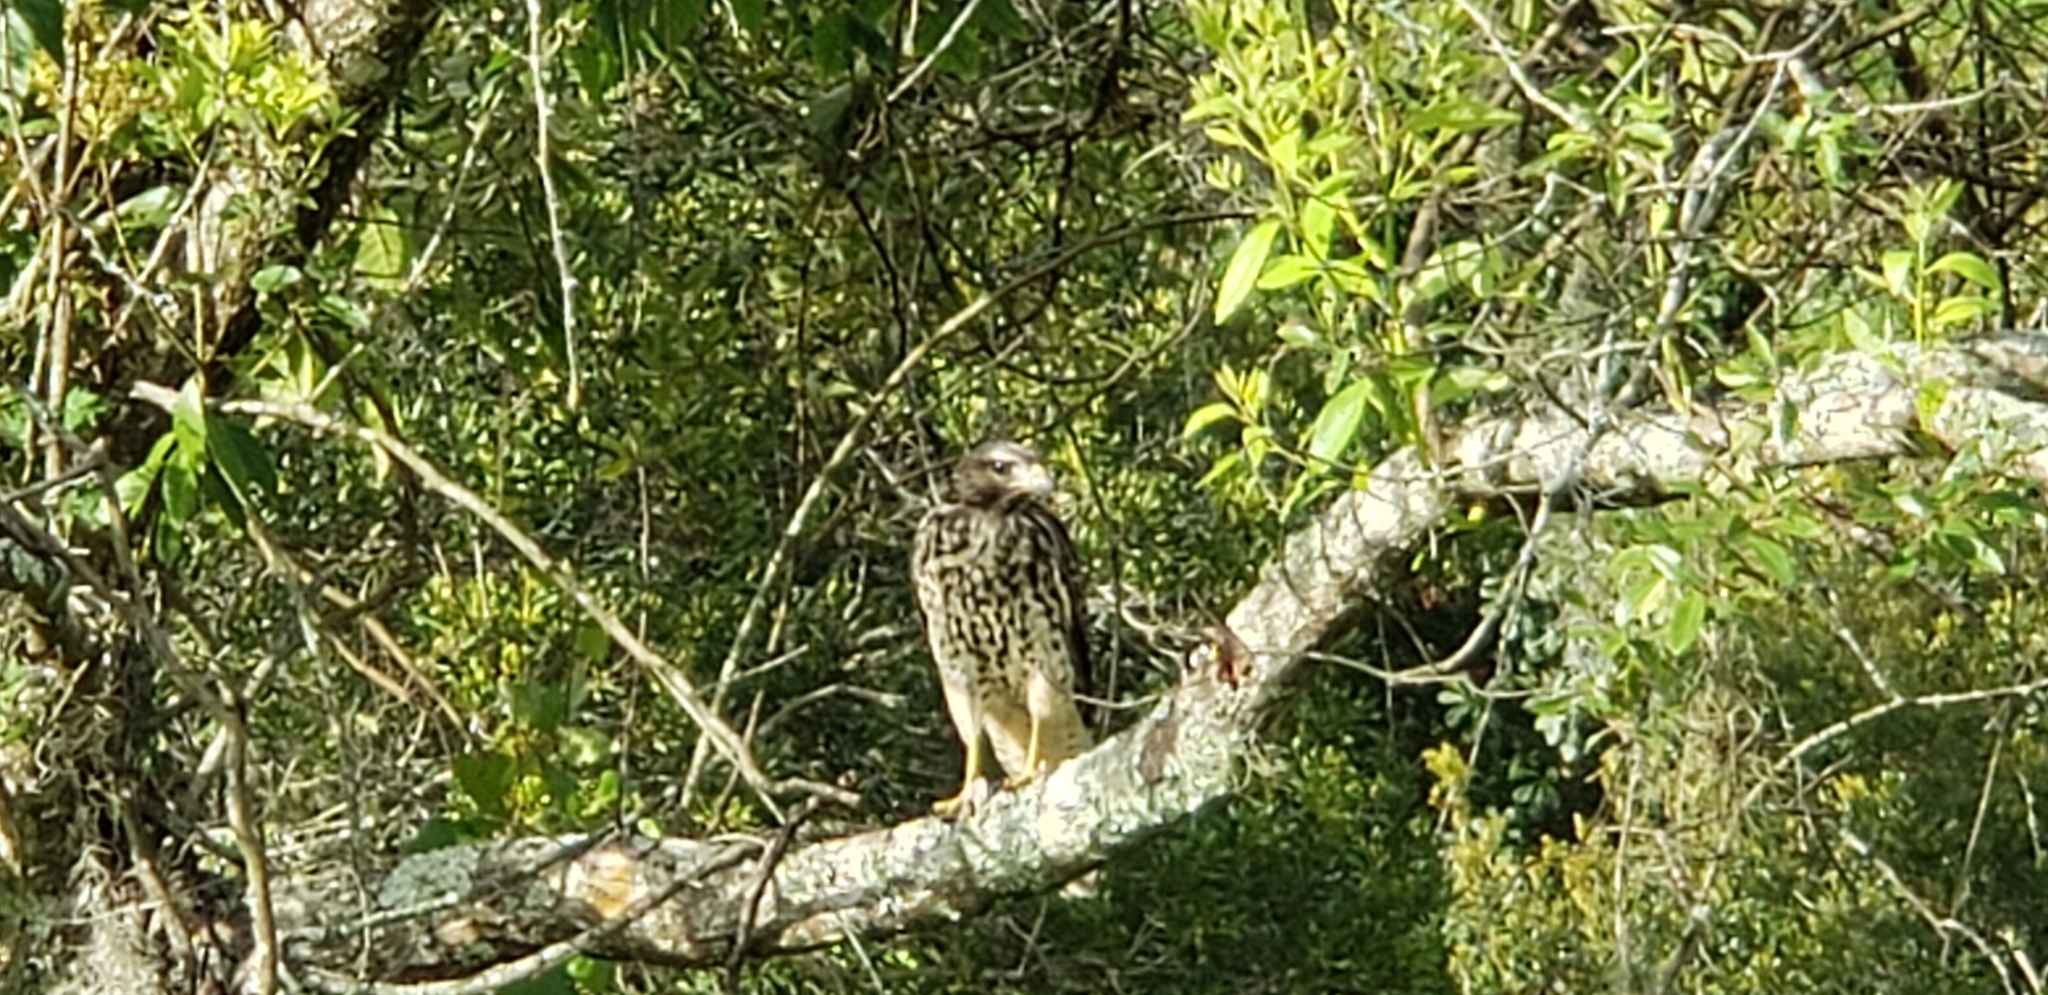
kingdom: Animalia
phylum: Chordata
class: Aves
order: Accipitriformes
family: Accipitridae
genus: Buteo
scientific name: Buteo lineatus
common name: Red-shouldered hawk
